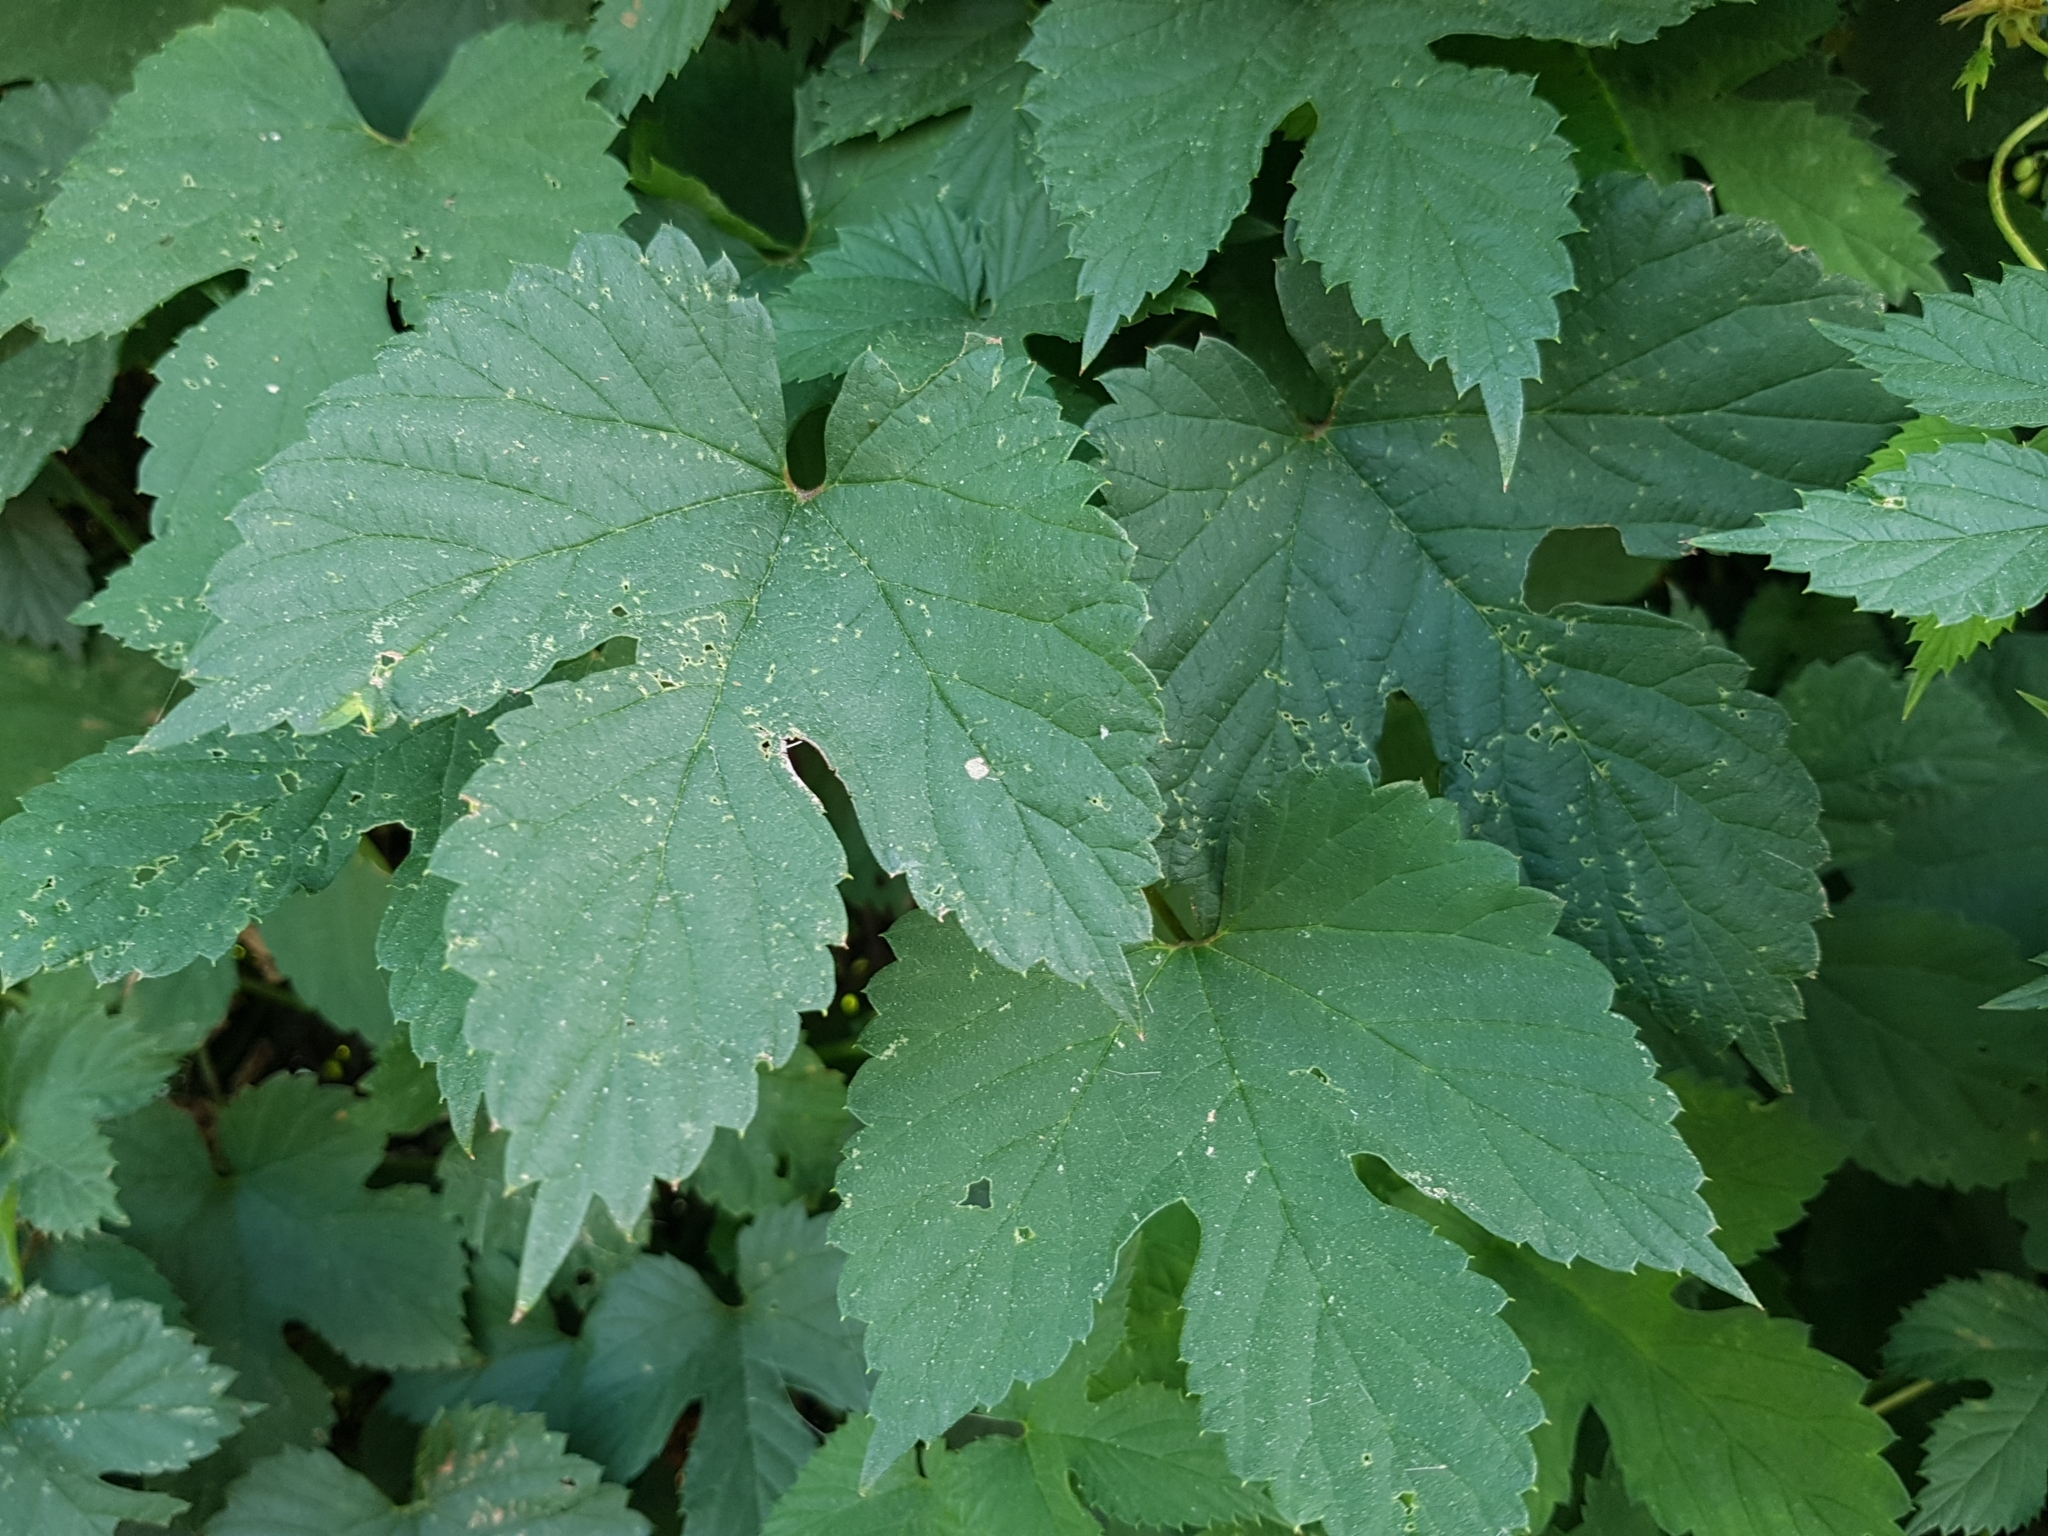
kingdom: Plantae
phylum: Tracheophyta
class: Magnoliopsida
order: Rosales
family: Cannabaceae
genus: Humulus
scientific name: Humulus lupulus
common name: Hop
